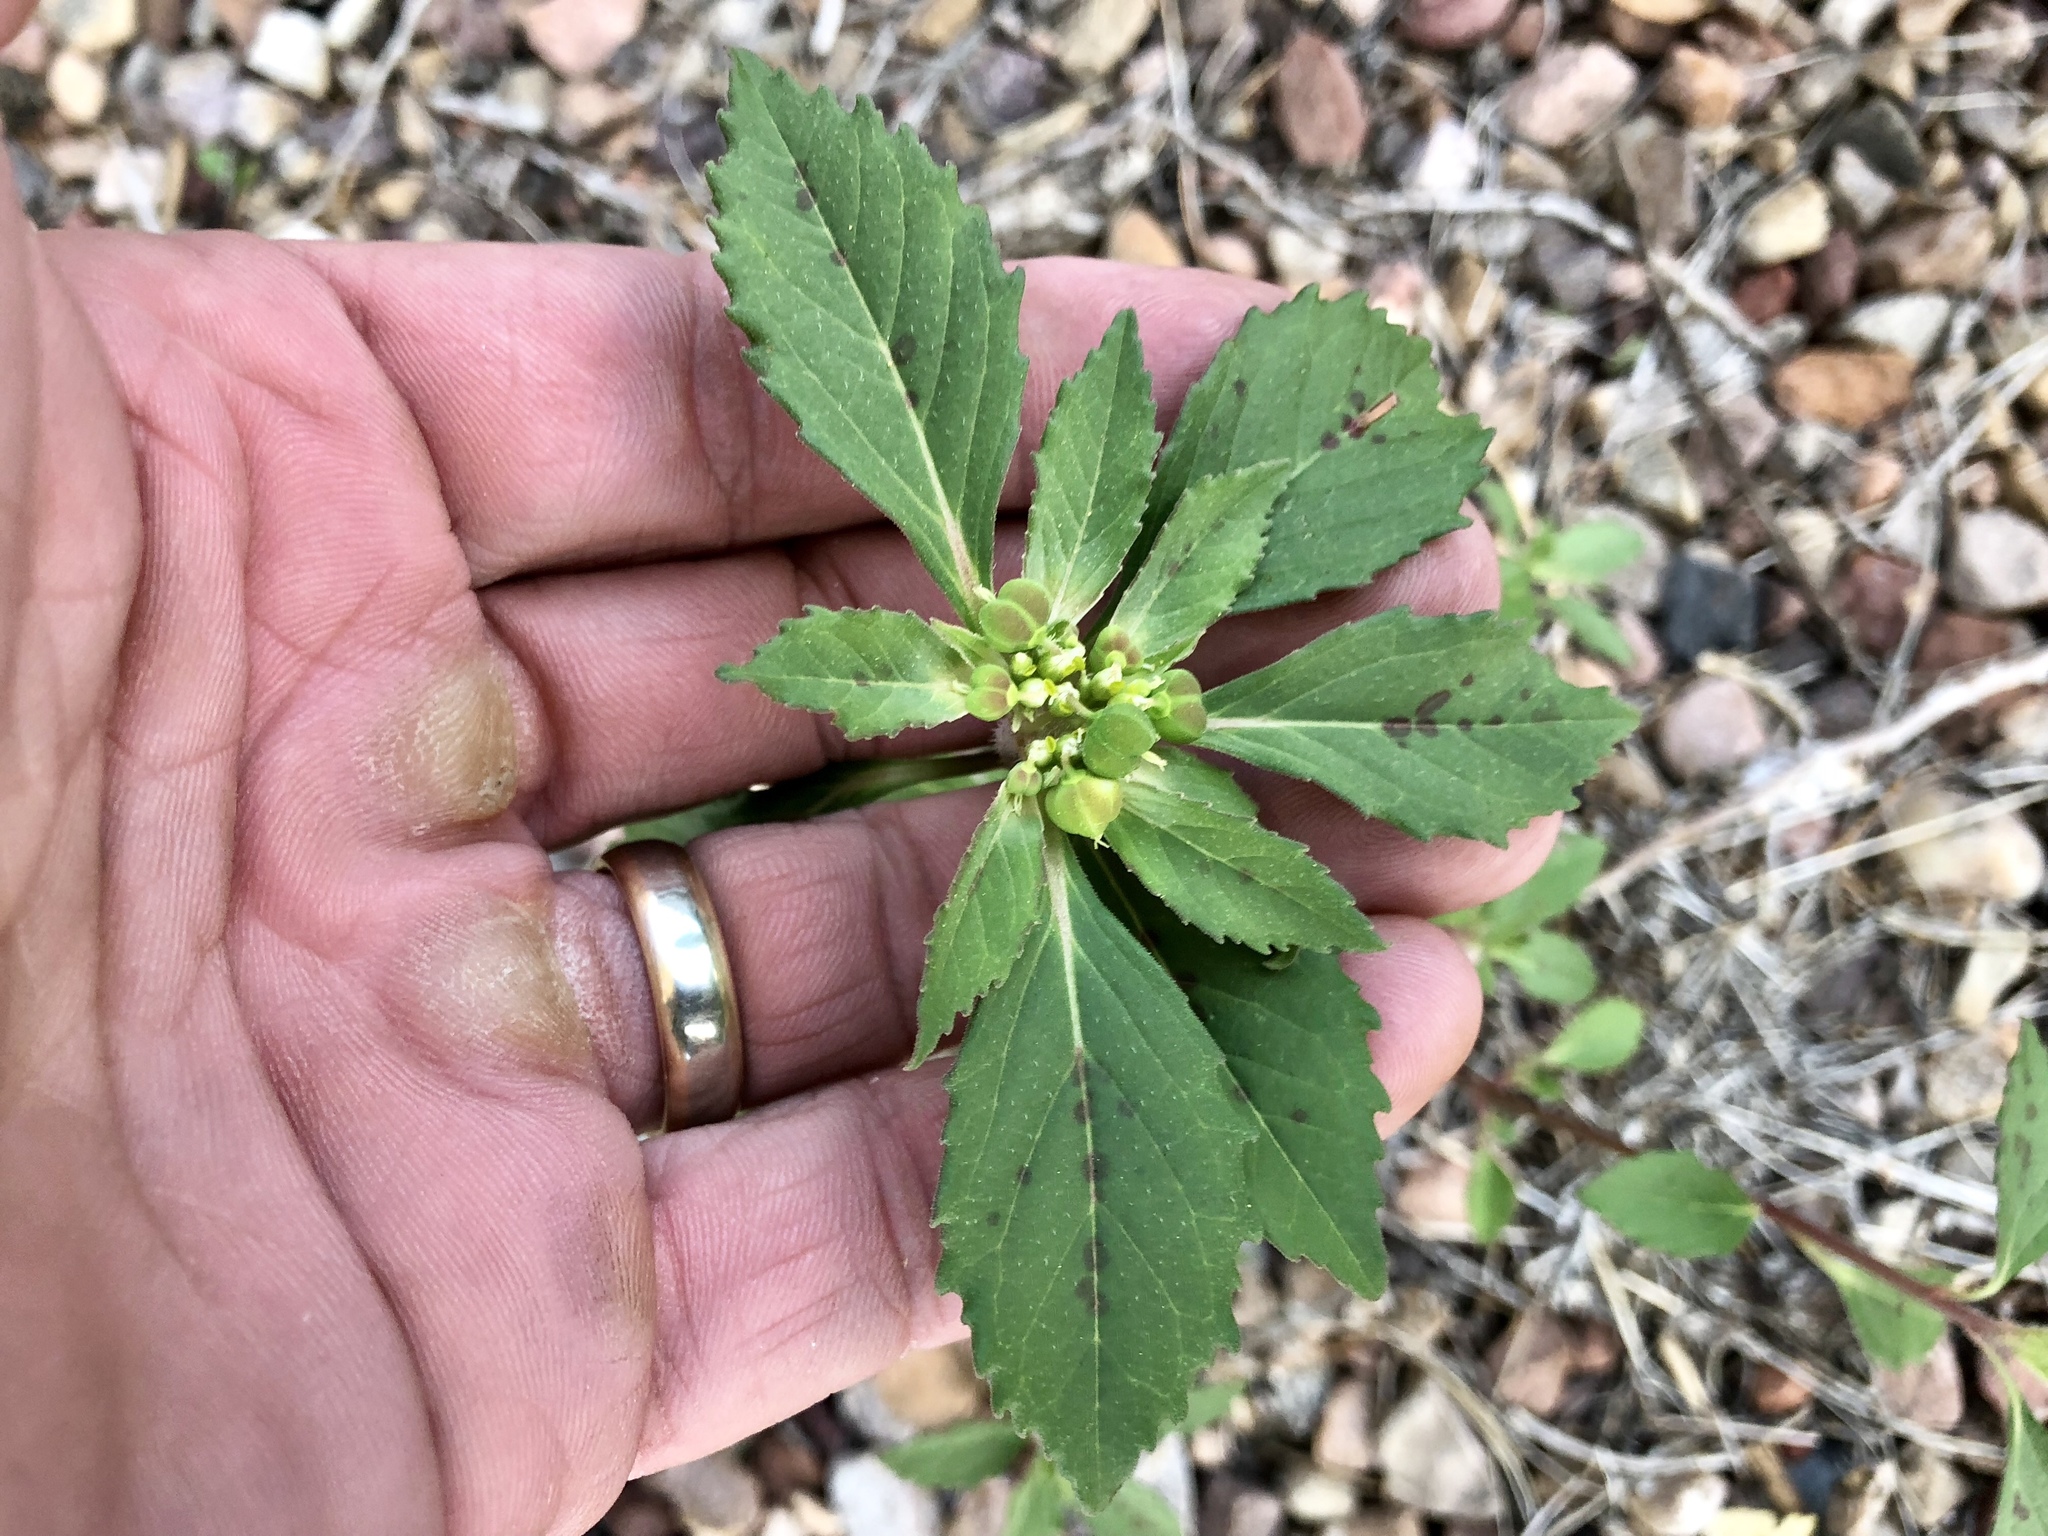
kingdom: Plantae
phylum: Tracheophyta
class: Magnoliopsida
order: Malpighiales
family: Euphorbiaceae
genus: Euphorbia
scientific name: Euphorbia davidii
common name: David's spurge
